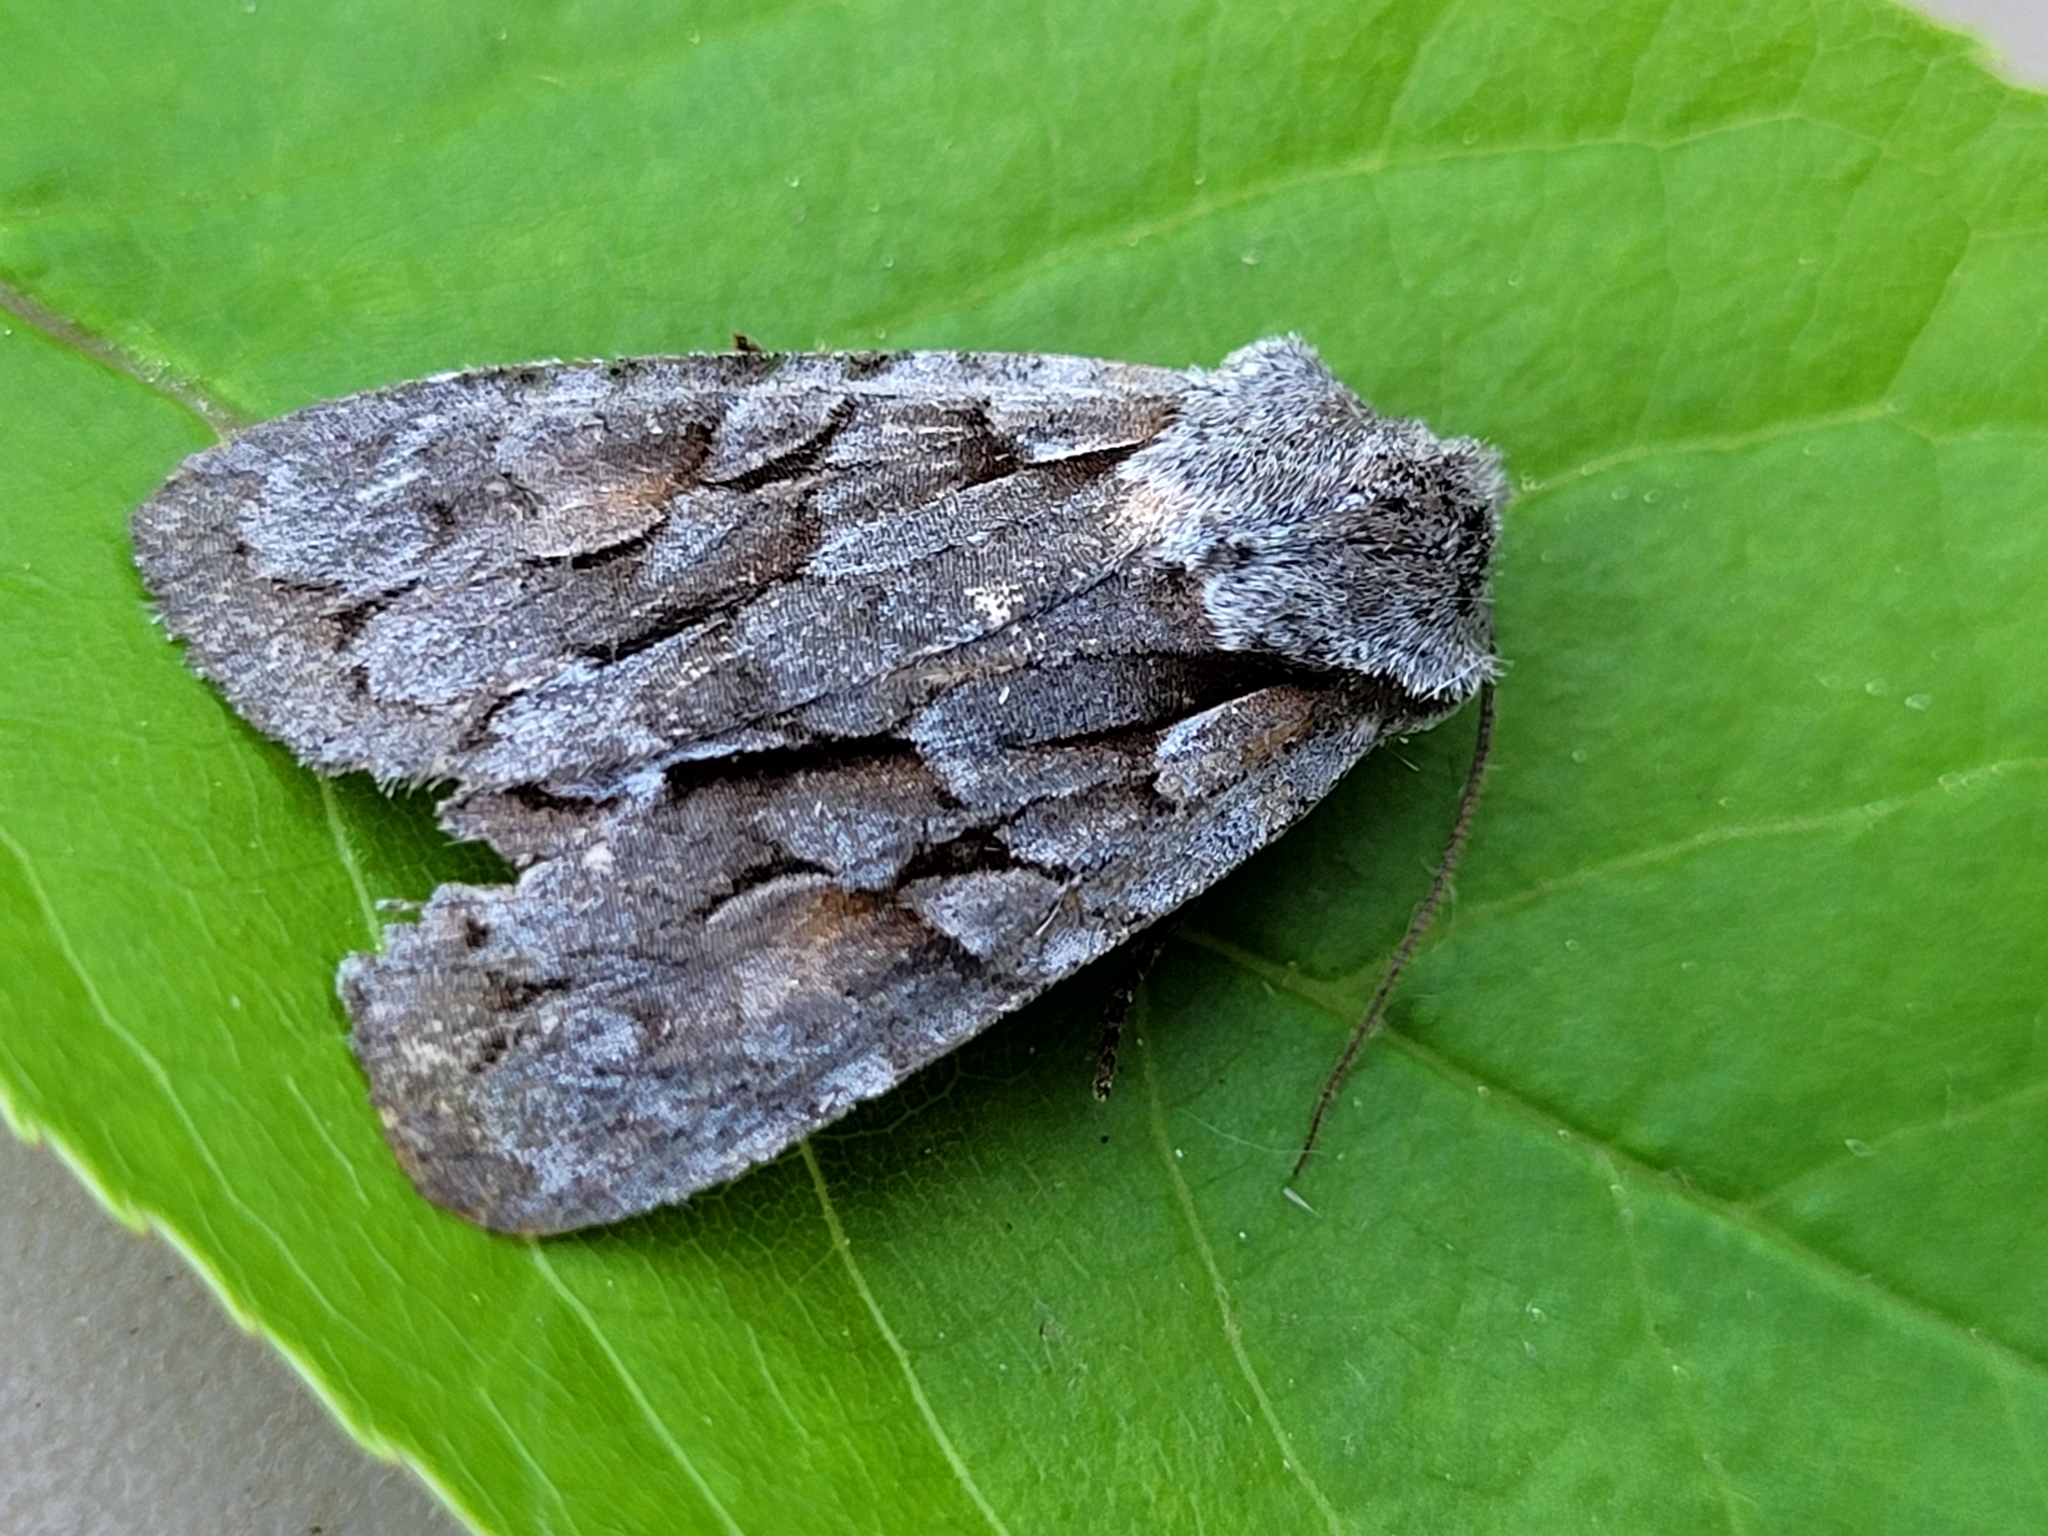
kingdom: Animalia
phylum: Arthropoda
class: Insecta
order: Lepidoptera
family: Noctuidae
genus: Lithophane
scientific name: Lithophane thaxteri
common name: Nonconformist
